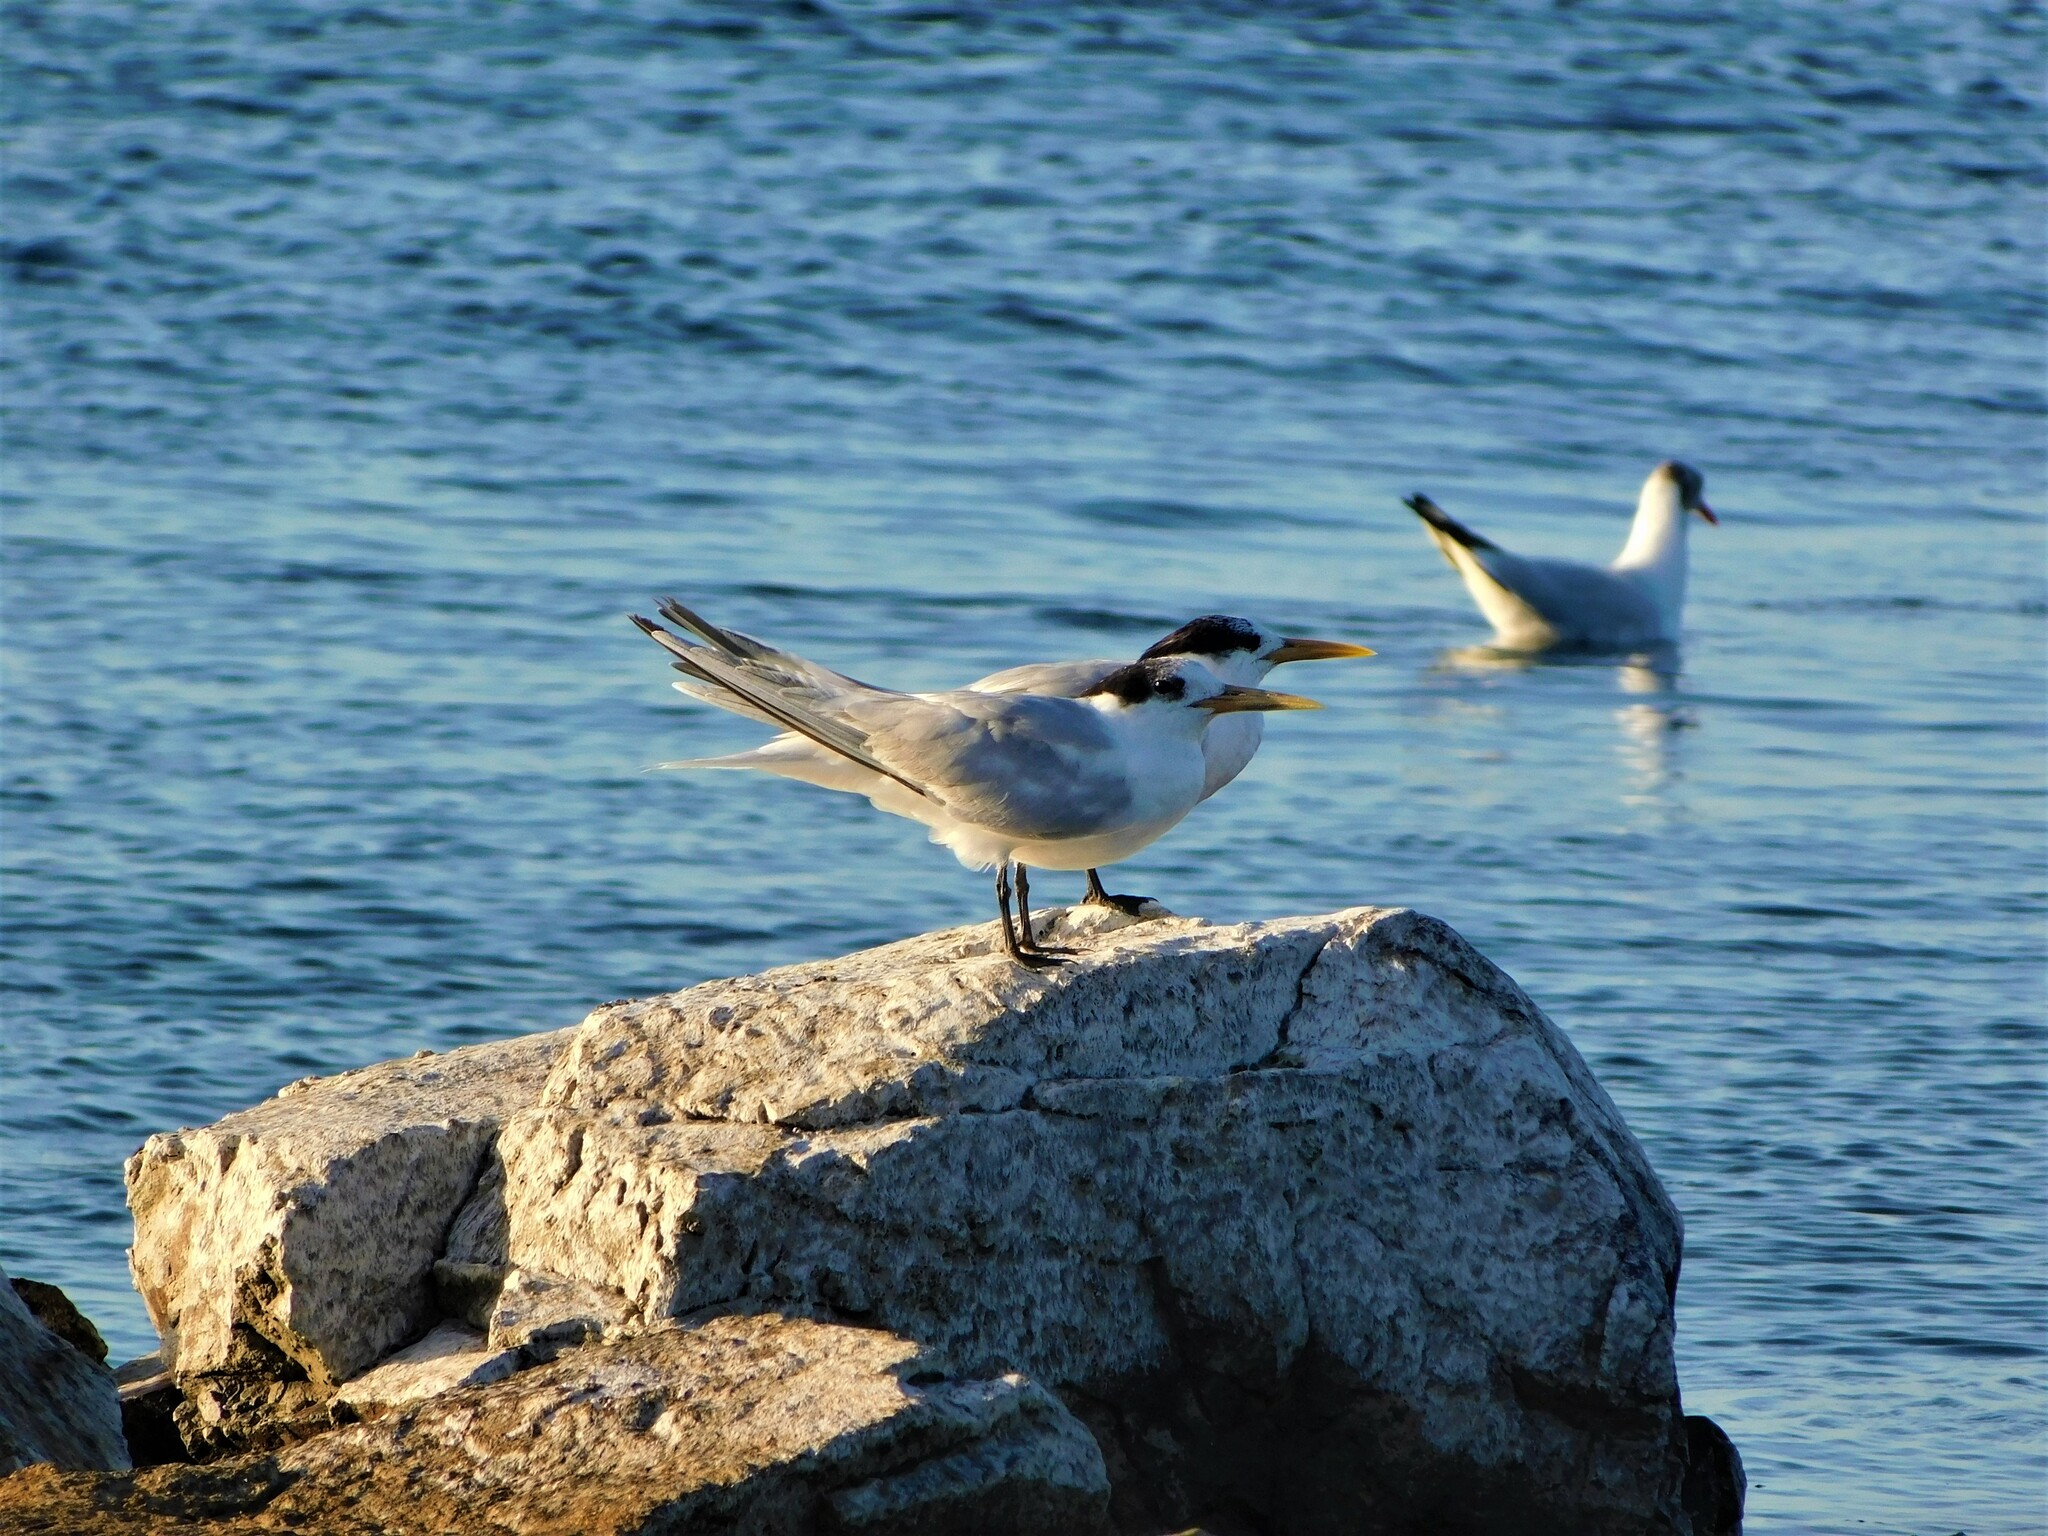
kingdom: Animalia
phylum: Chordata
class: Aves
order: Charadriiformes
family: Laridae
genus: Thalasseus
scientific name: Thalasseus acuflavidus
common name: Cabot's tern
